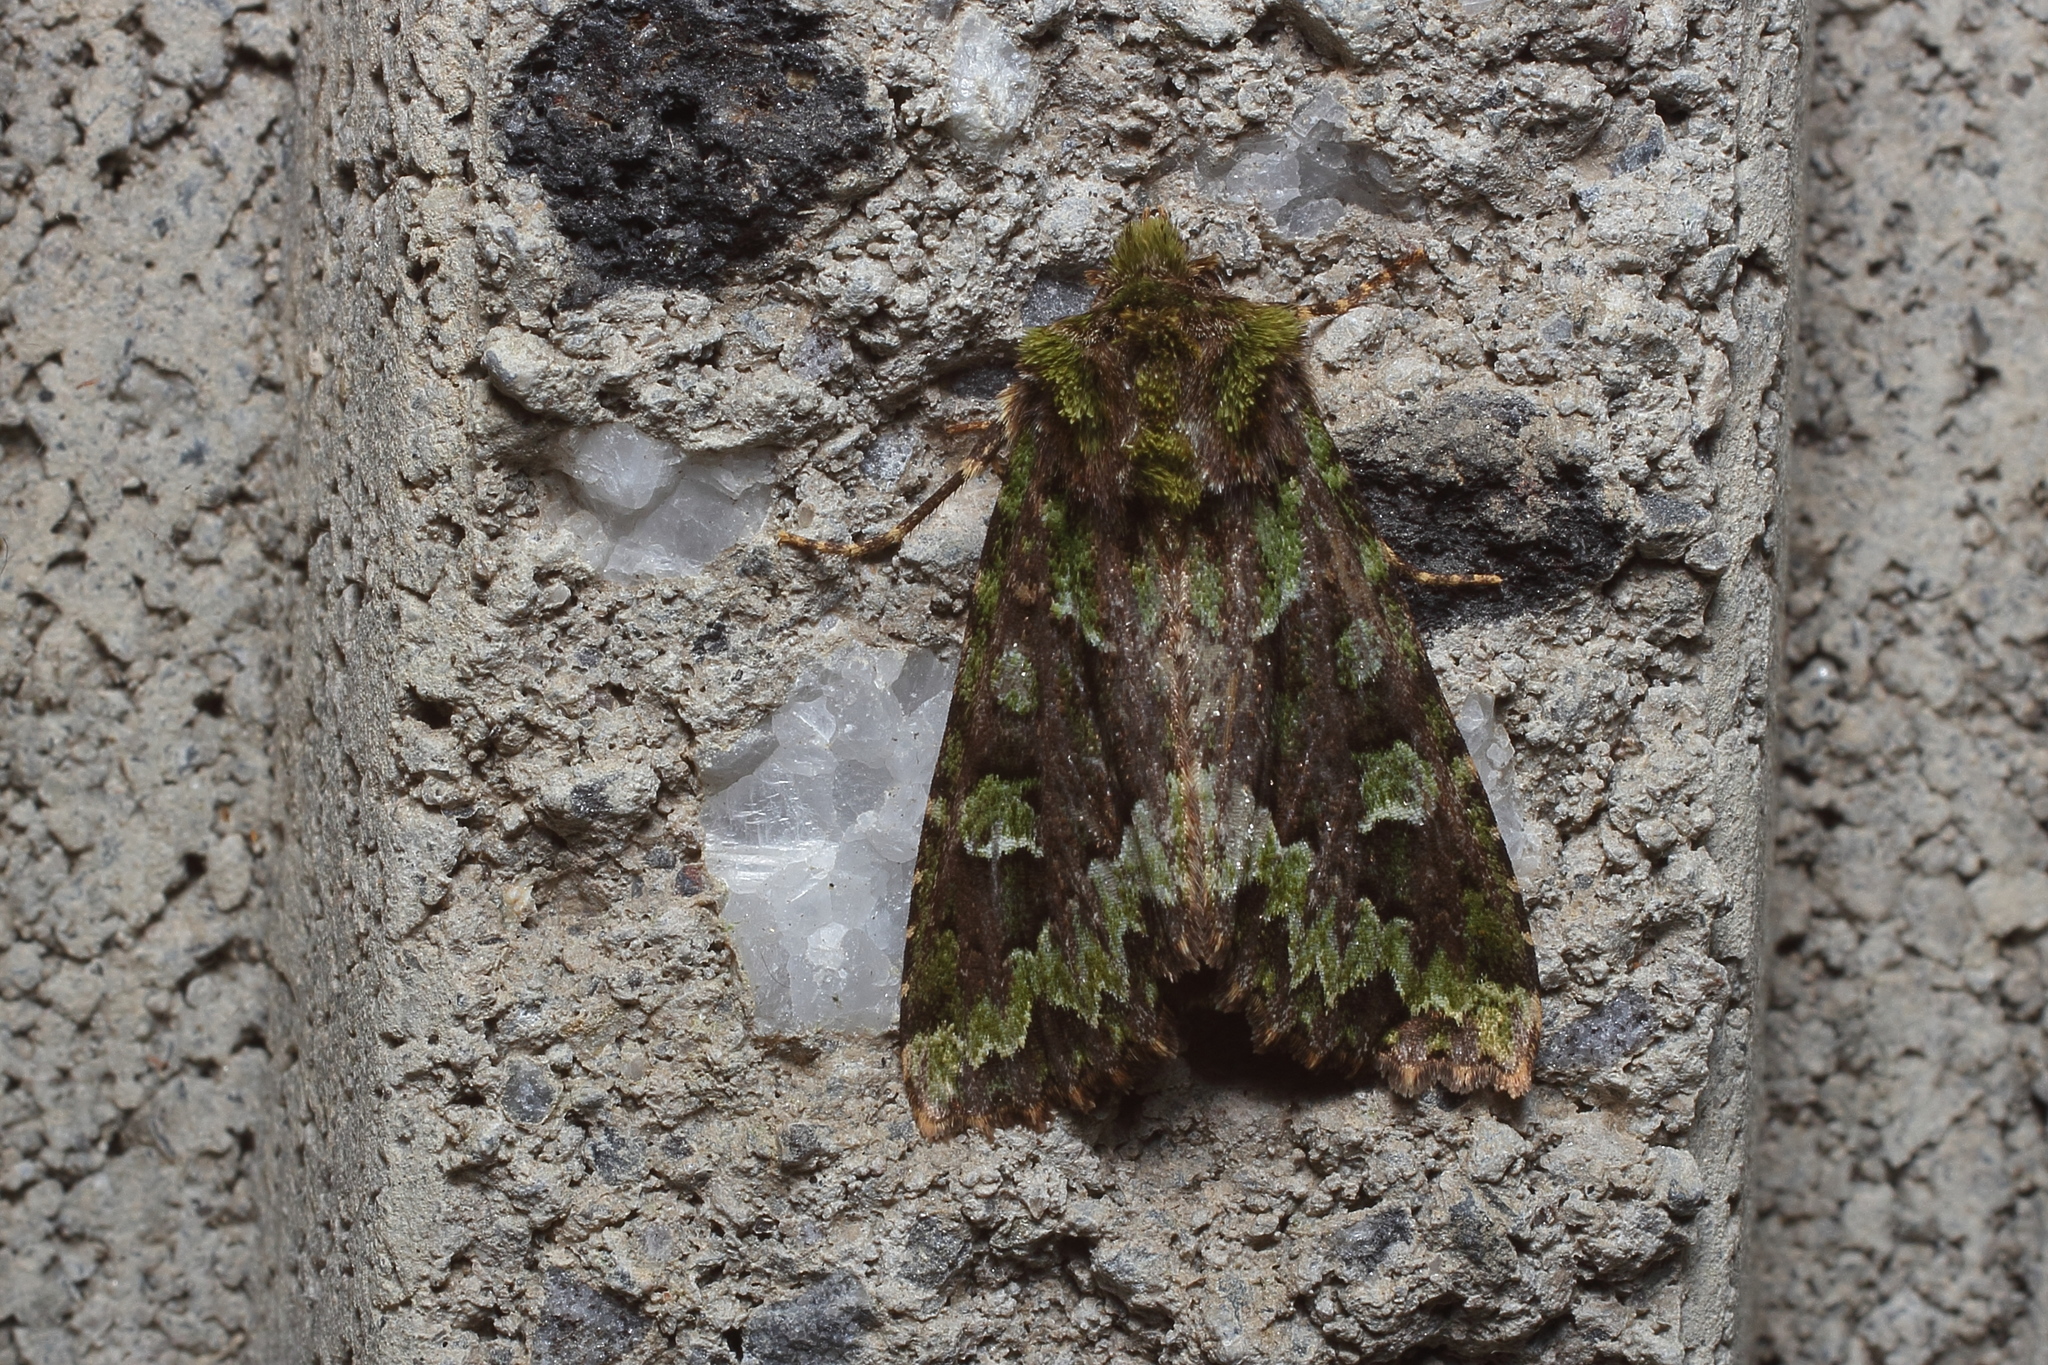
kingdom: Animalia
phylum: Arthropoda
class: Insecta
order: Lepidoptera
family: Noctuidae
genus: Antivaleria
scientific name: Antivaleria viridimacula
